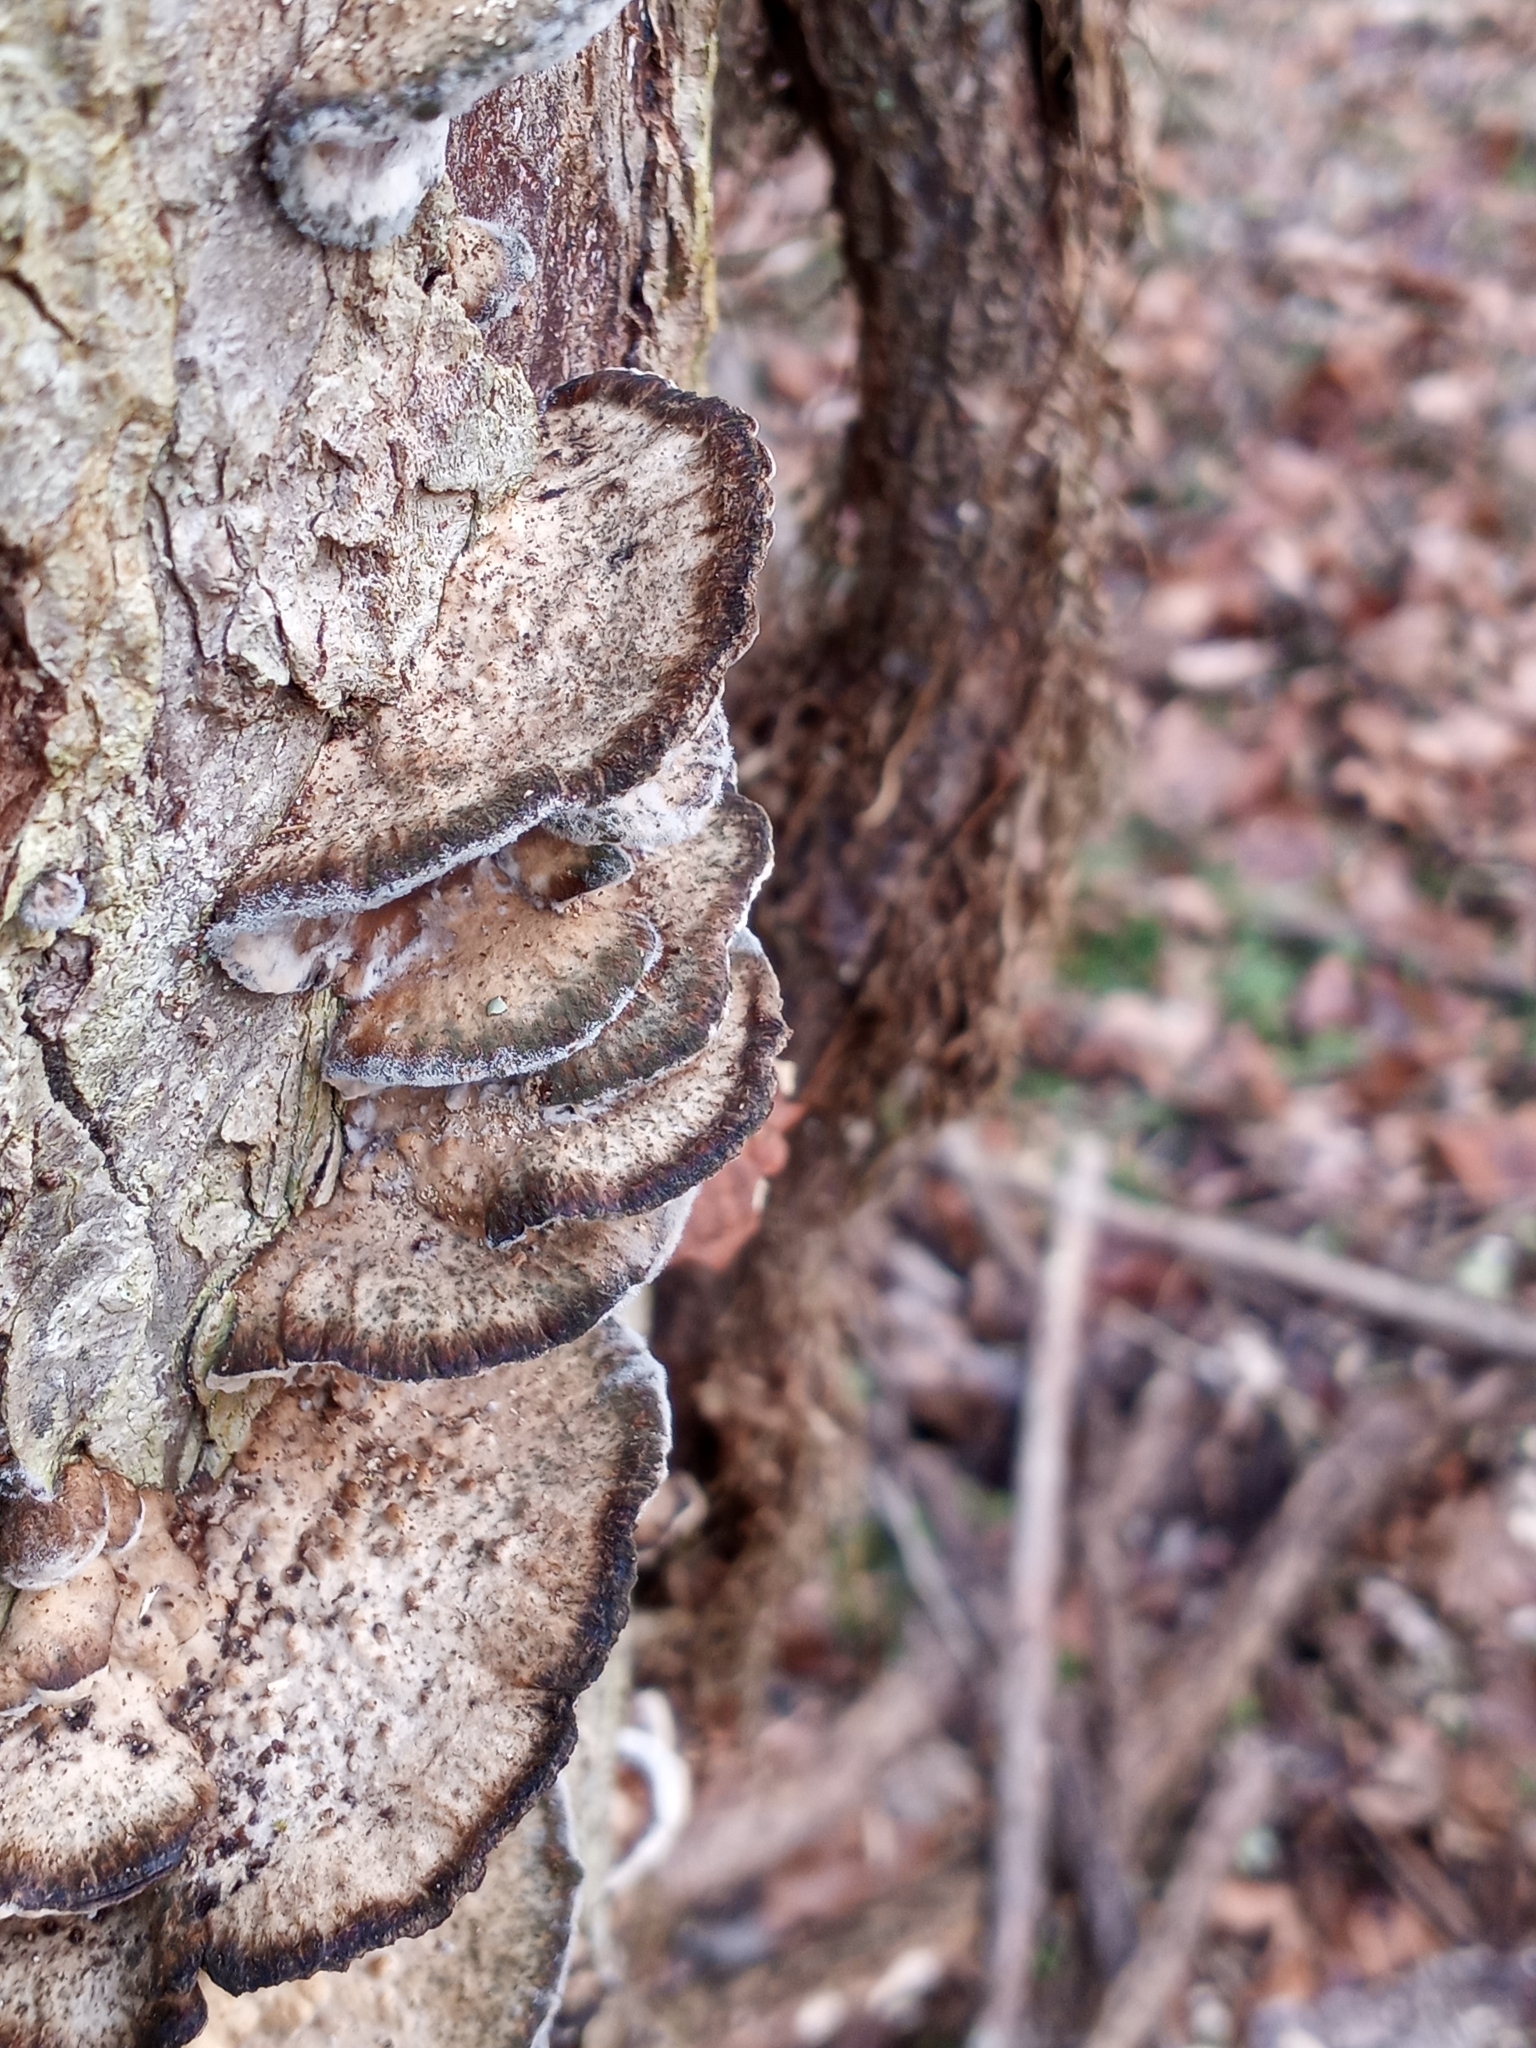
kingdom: Fungi
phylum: Basidiomycota
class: Agaricomycetes
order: Polyporales
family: Phanerochaetaceae
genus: Bjerkandera
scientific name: Bjerkandera adusta
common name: Smoky bracket
